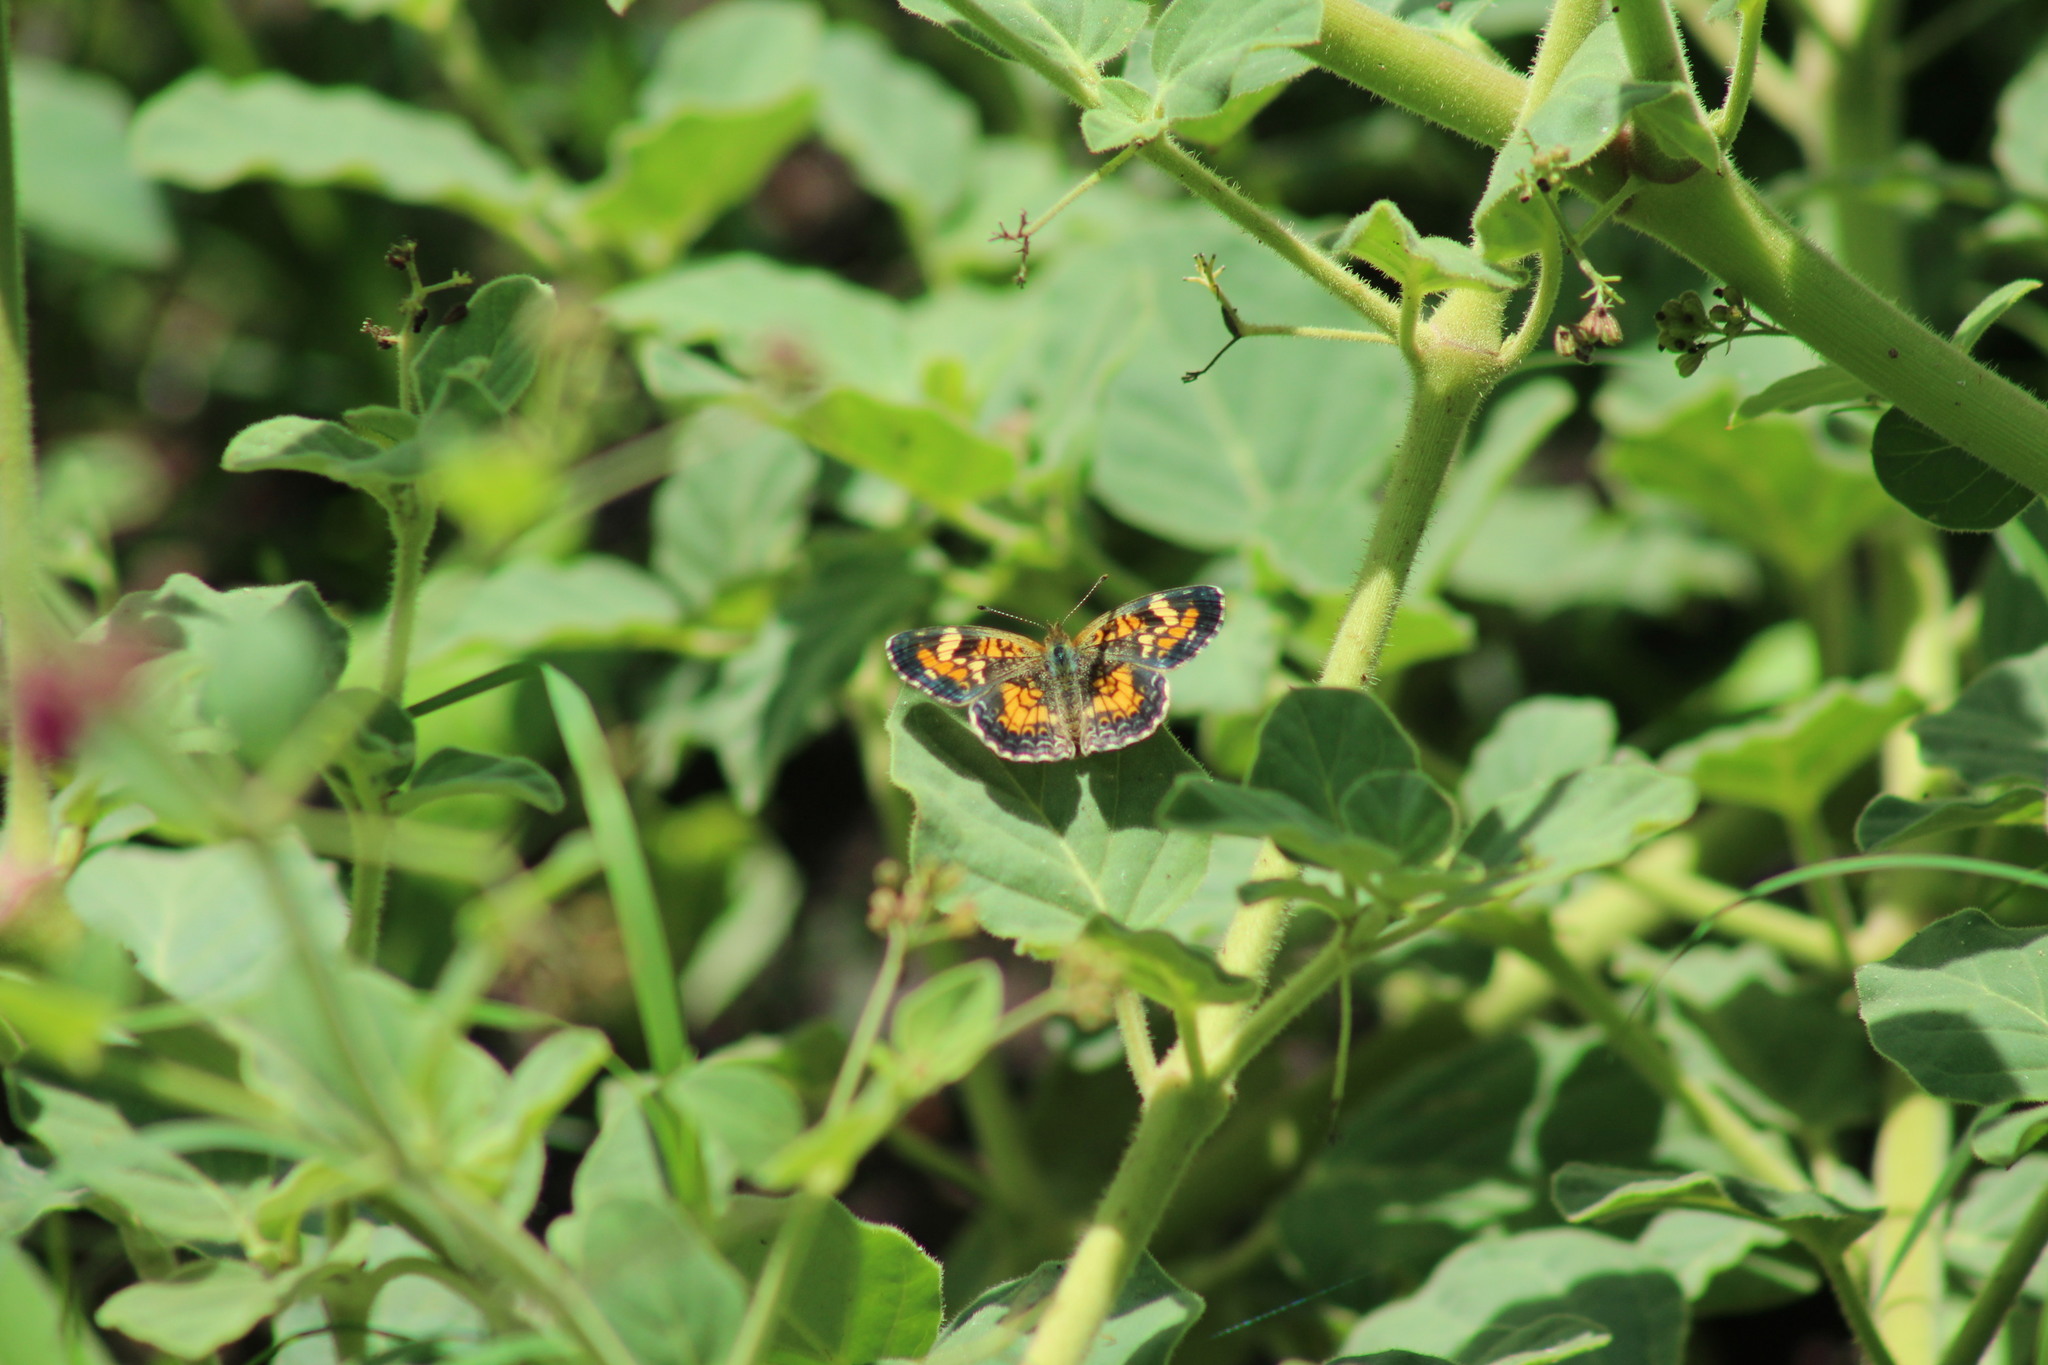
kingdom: Animalia
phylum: Arthropoda
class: Insecta
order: Lepidoptera
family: Nymphalidae
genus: Phyciodes
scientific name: Phyciodes phaon
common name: Phaon crescent
